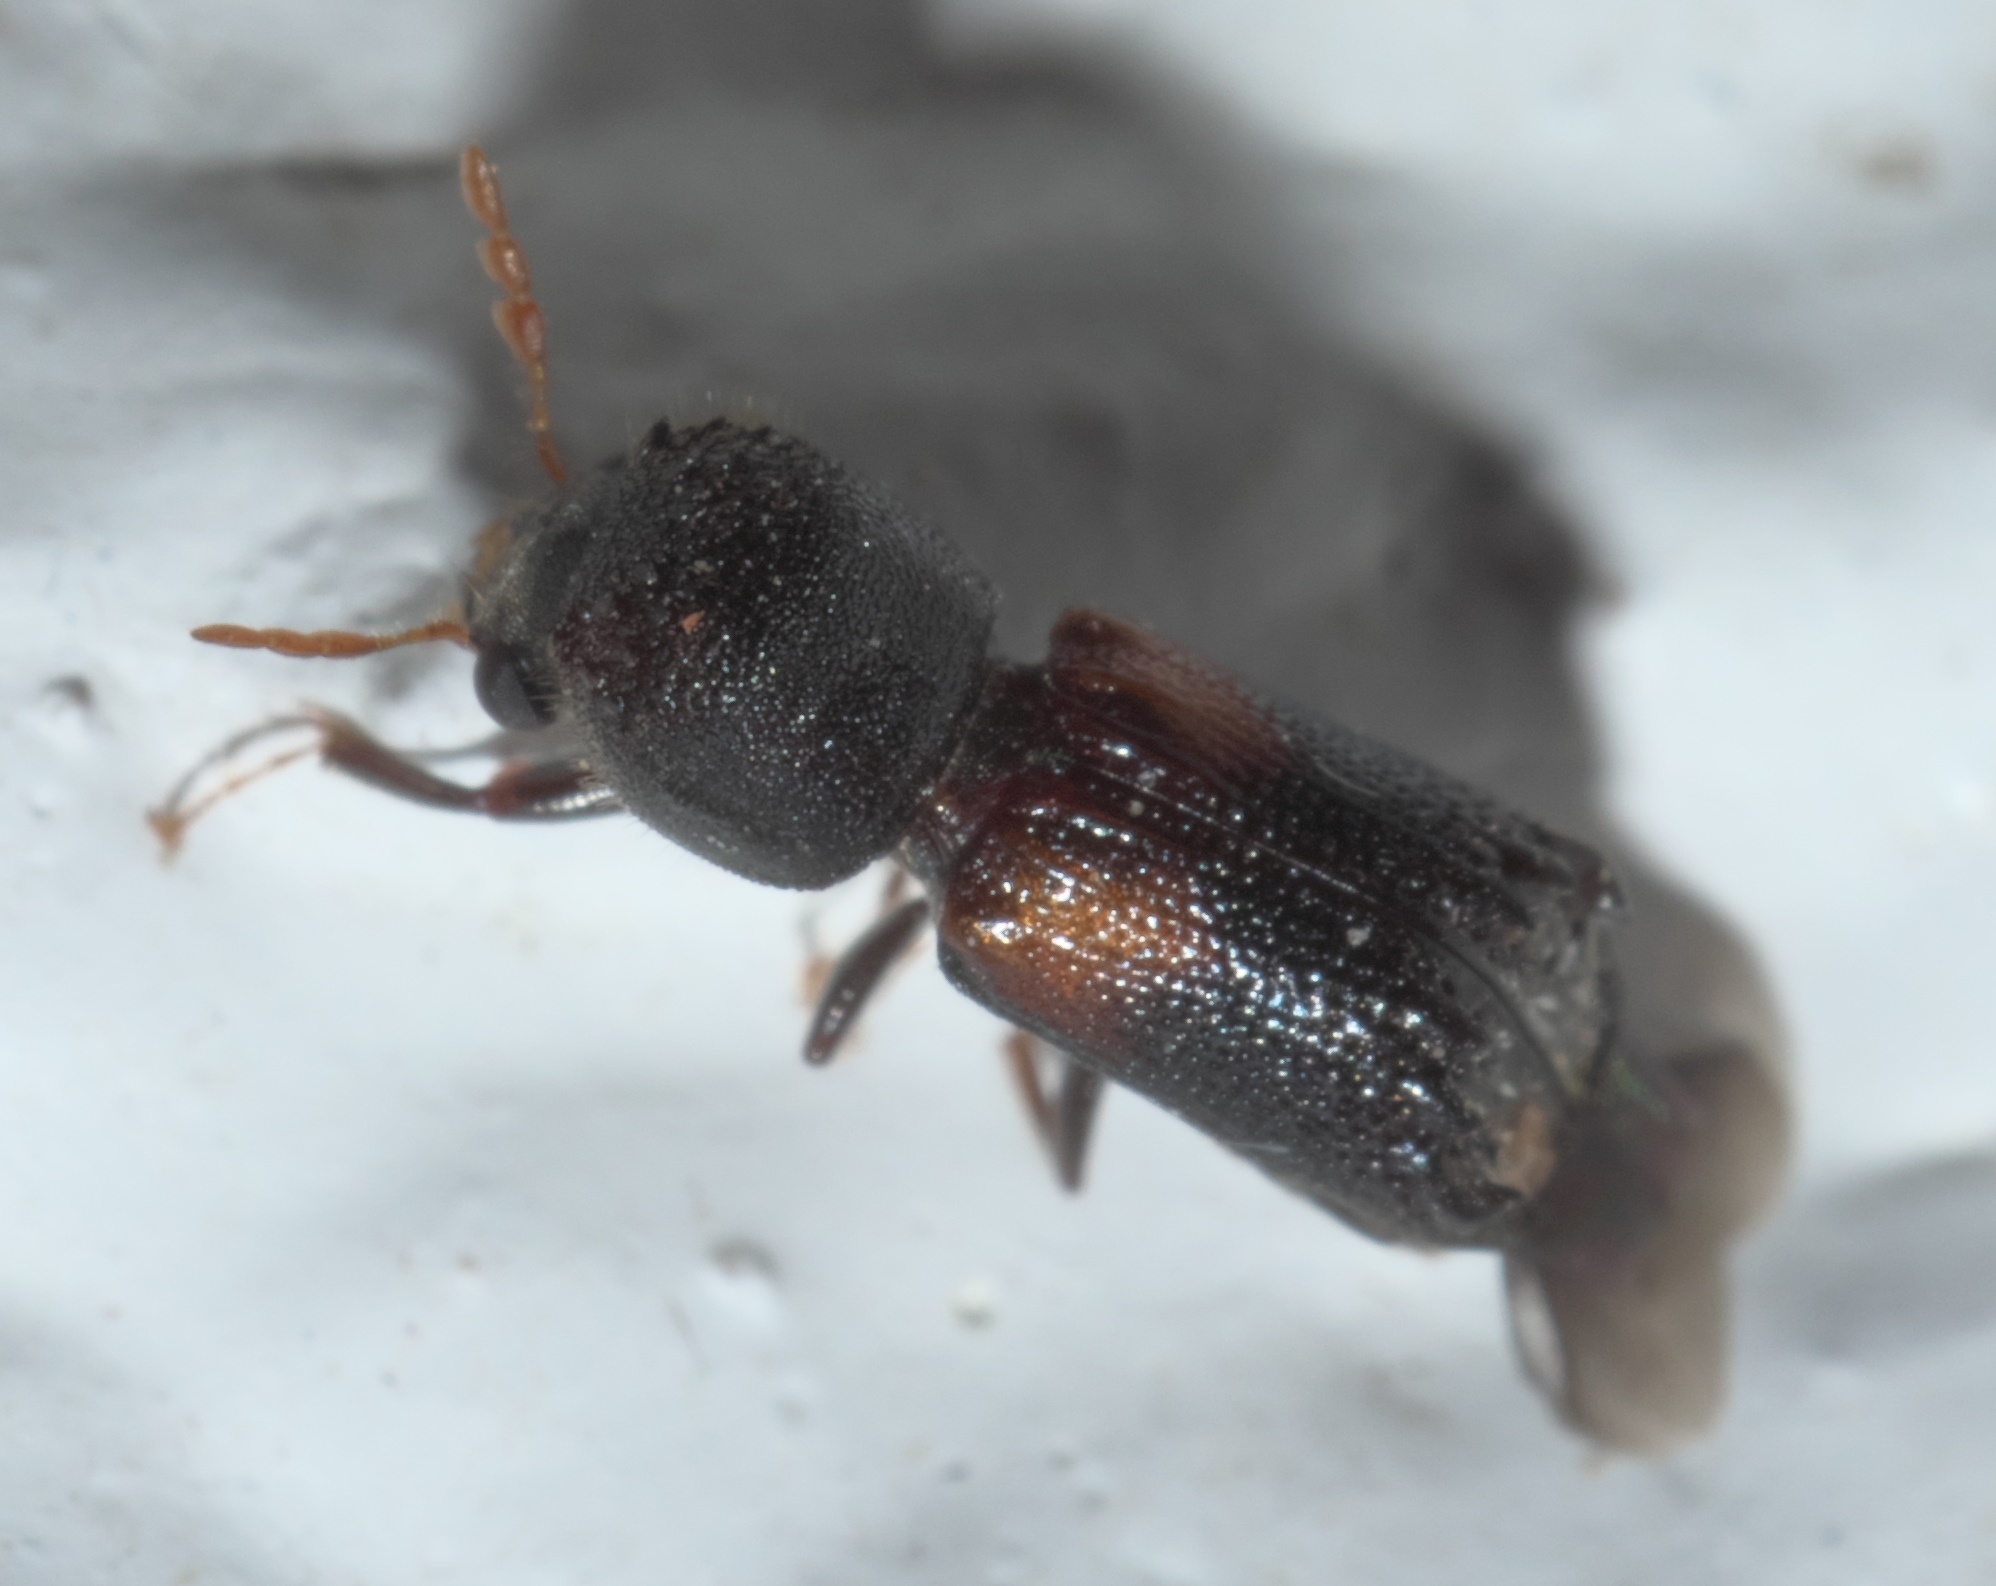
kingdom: Animalia
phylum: Arthropoda
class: Insecta
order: Coleoptera
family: Bostrichidae
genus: Xylobiops
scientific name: Xylobiops basilaris
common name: Red-shouldered bostrichid
